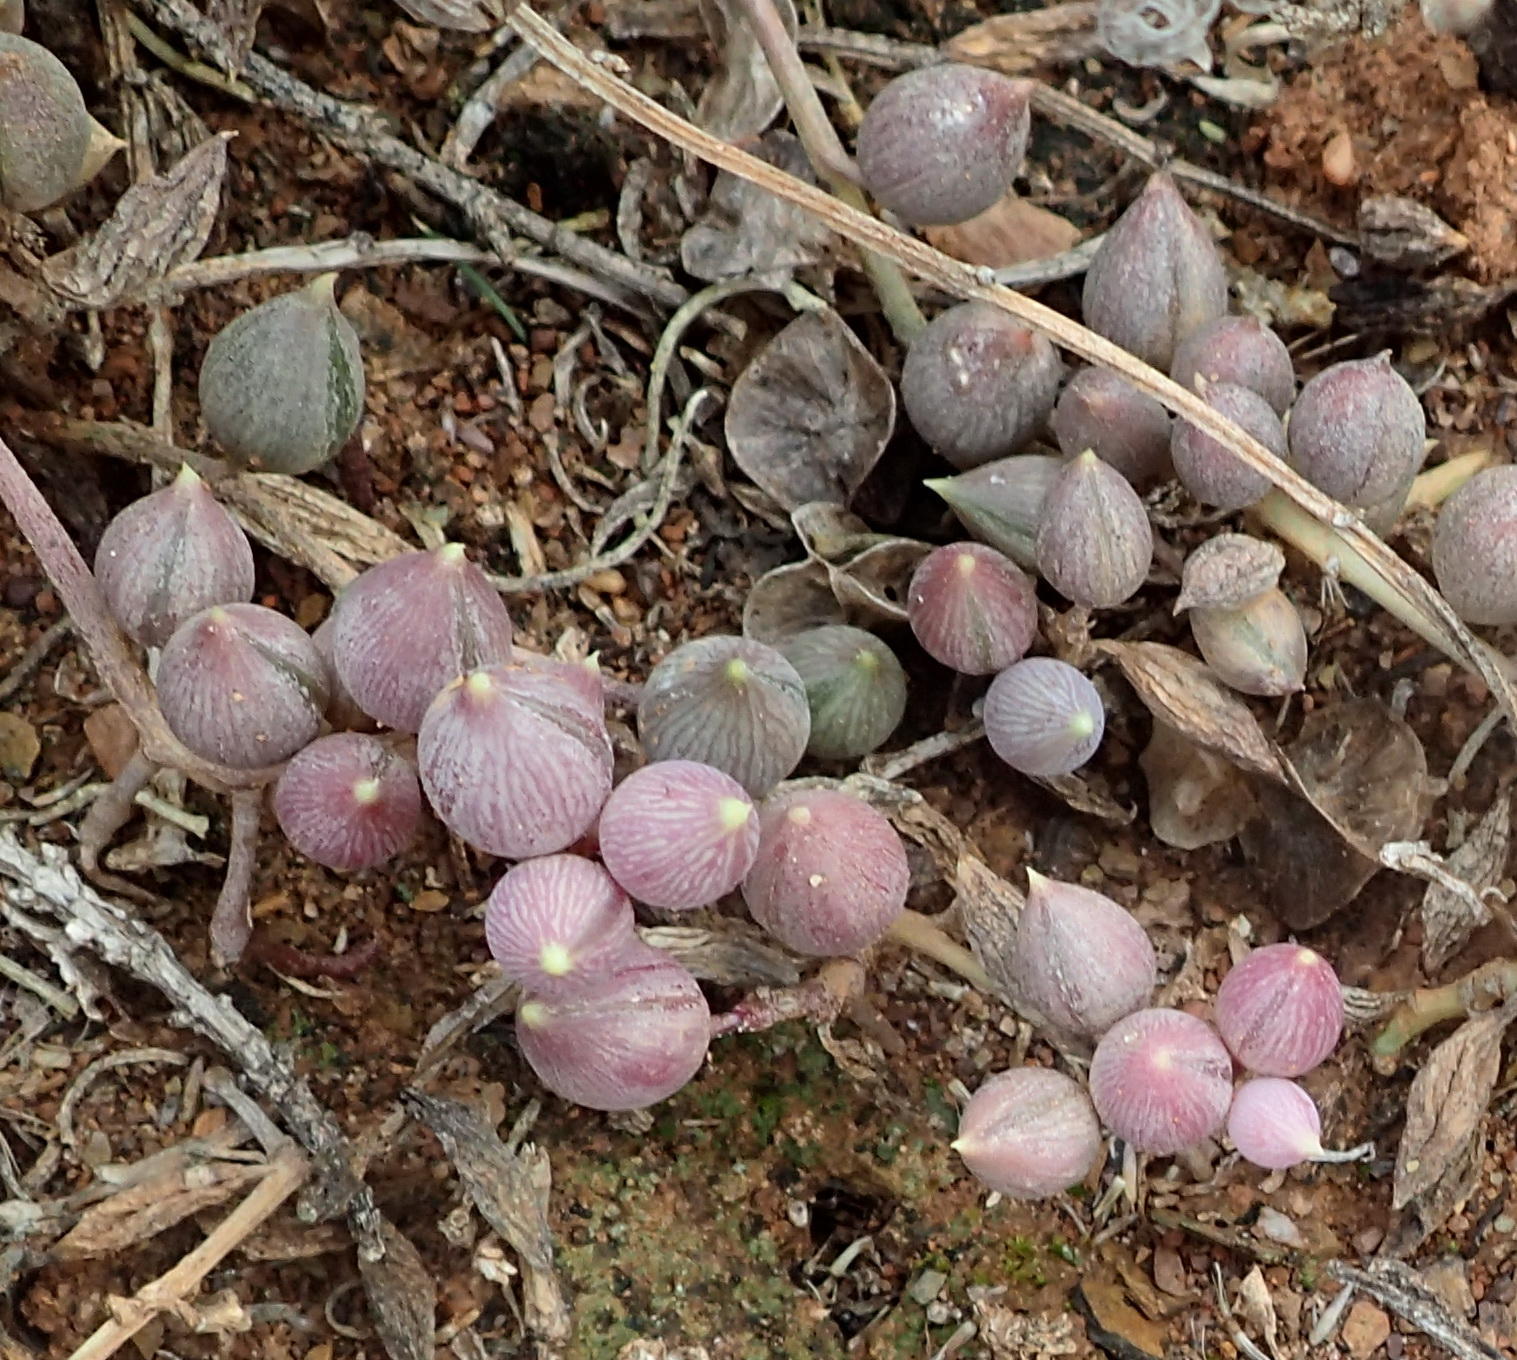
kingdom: Plantae
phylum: Tracheophyta
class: Magnoliopsida
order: Asterales
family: Asteraceae
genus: Curio
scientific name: Curio radicans
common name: Creeping-berry
